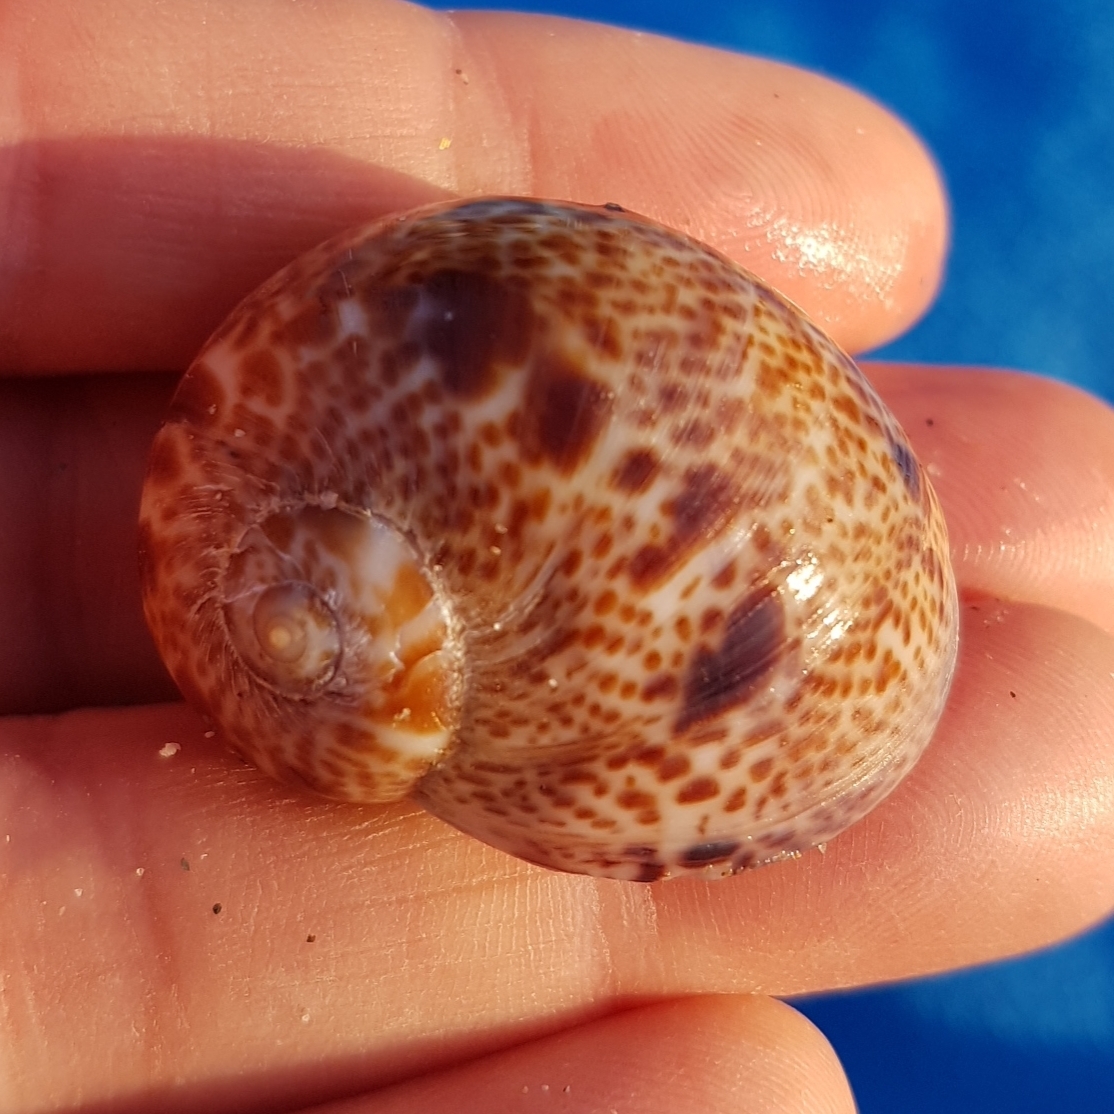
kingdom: Animalia
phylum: Mollusca
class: Gastropoda
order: Littorinimorpha
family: Naticidae
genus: Naticarius
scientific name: Naticarius hebraeus
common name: Hebrew moon shell
